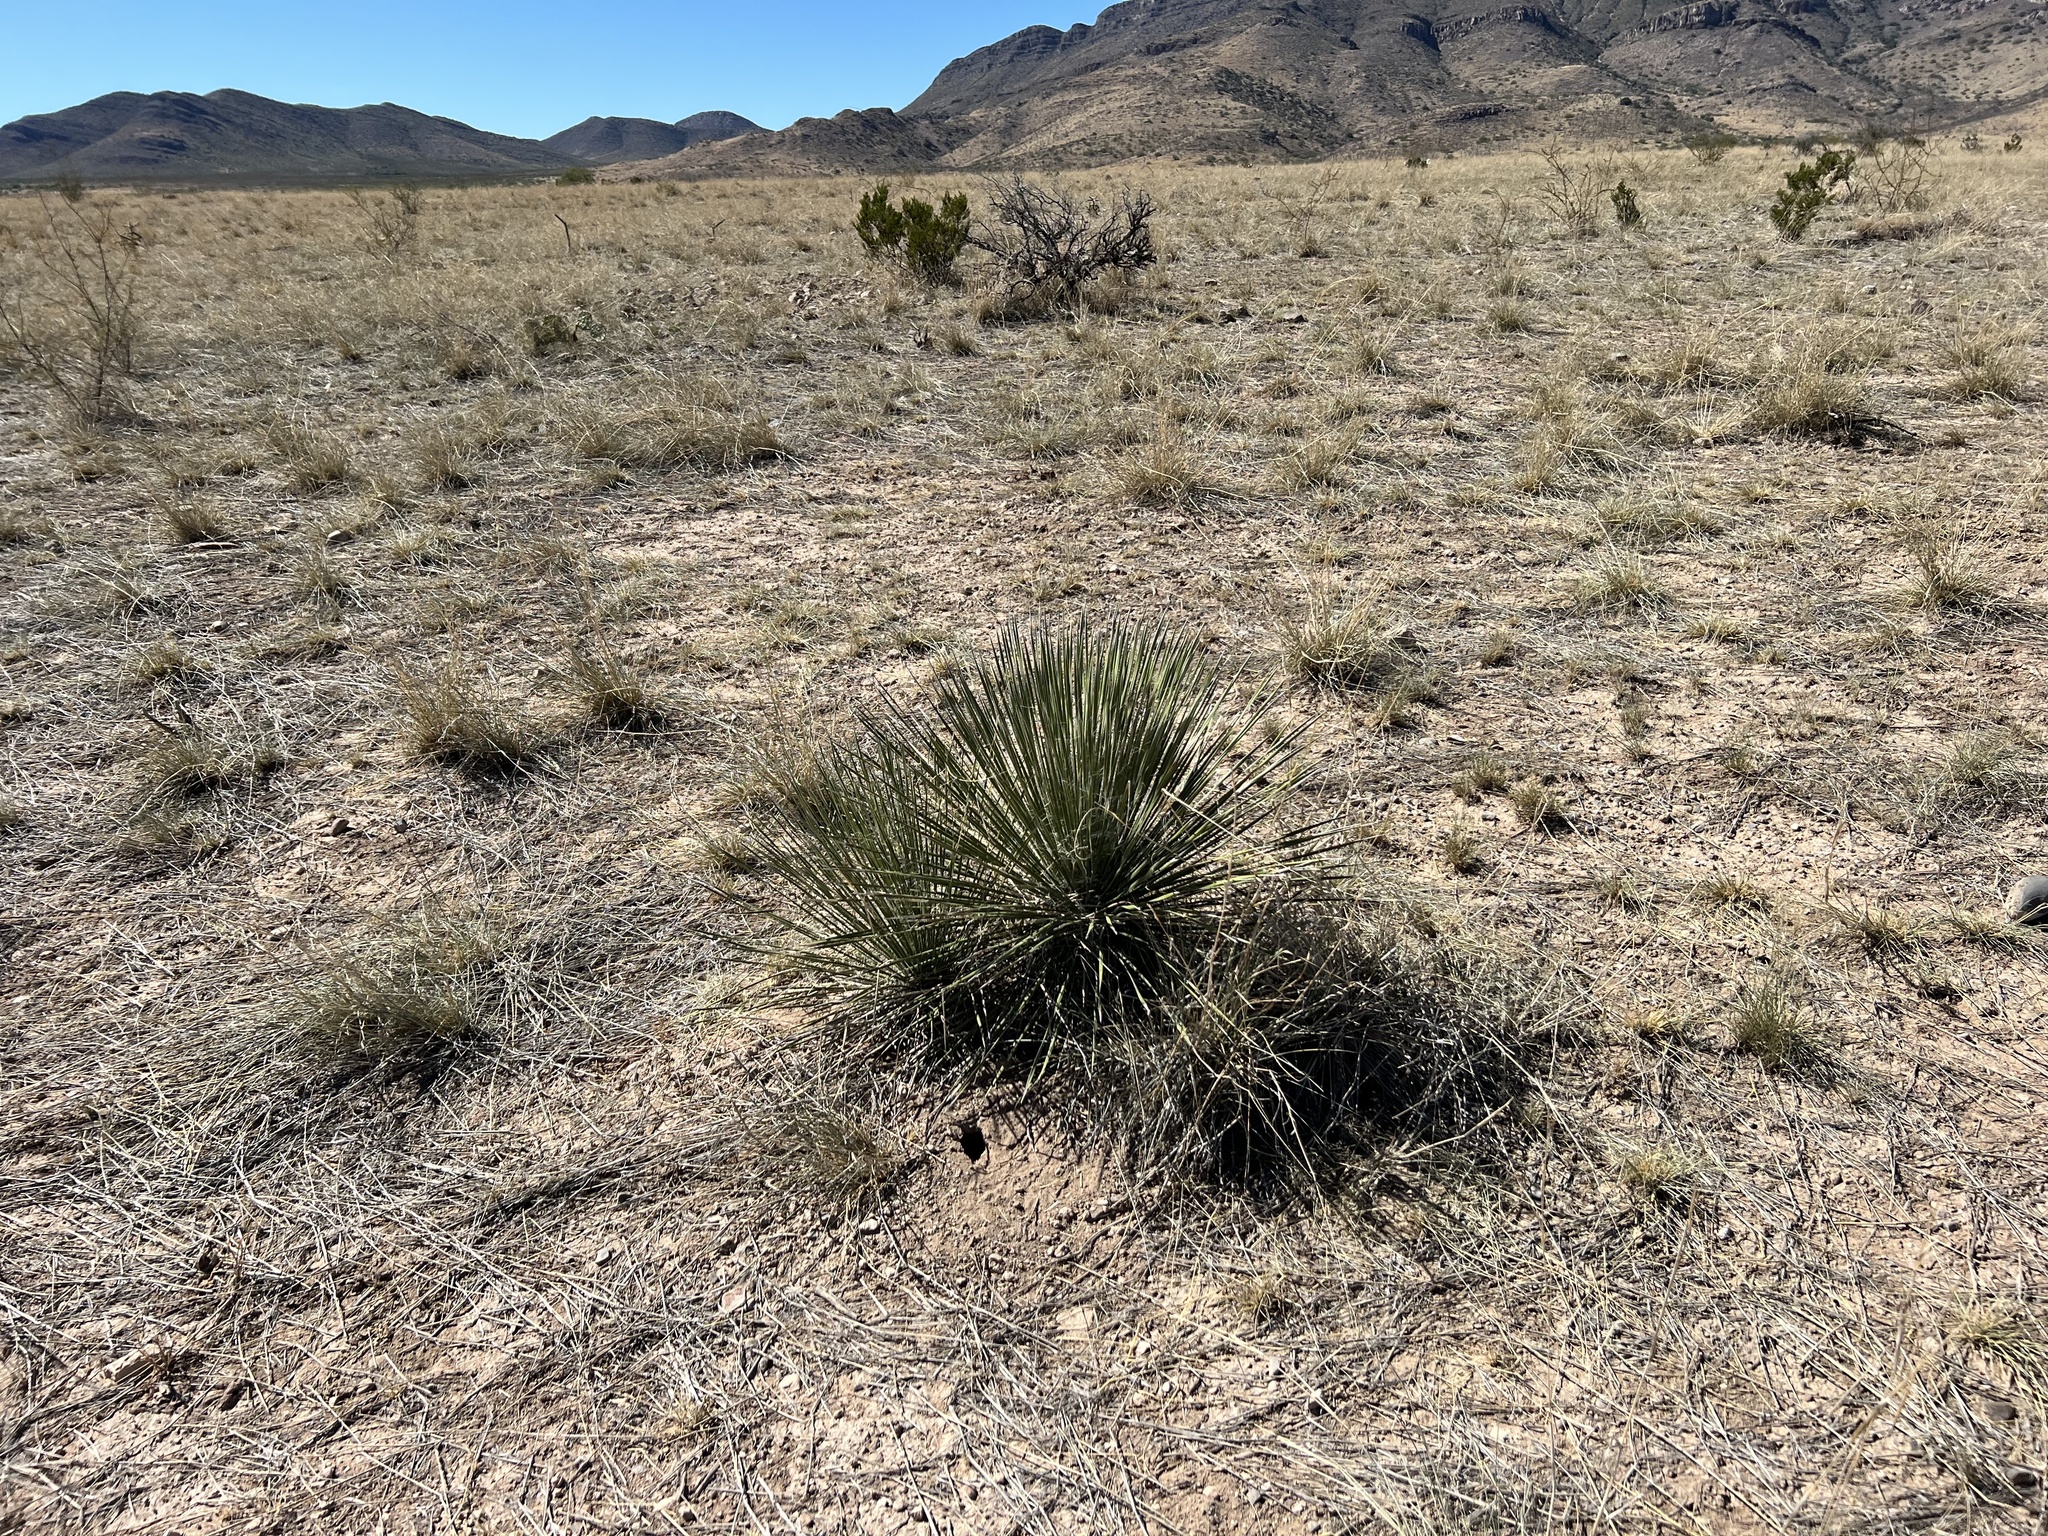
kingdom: Plantae
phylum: Tracheophyta
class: Liliopsida
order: Asparagales
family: Asparagaceae
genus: Yucca
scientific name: Yucca elata
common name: Palmella
